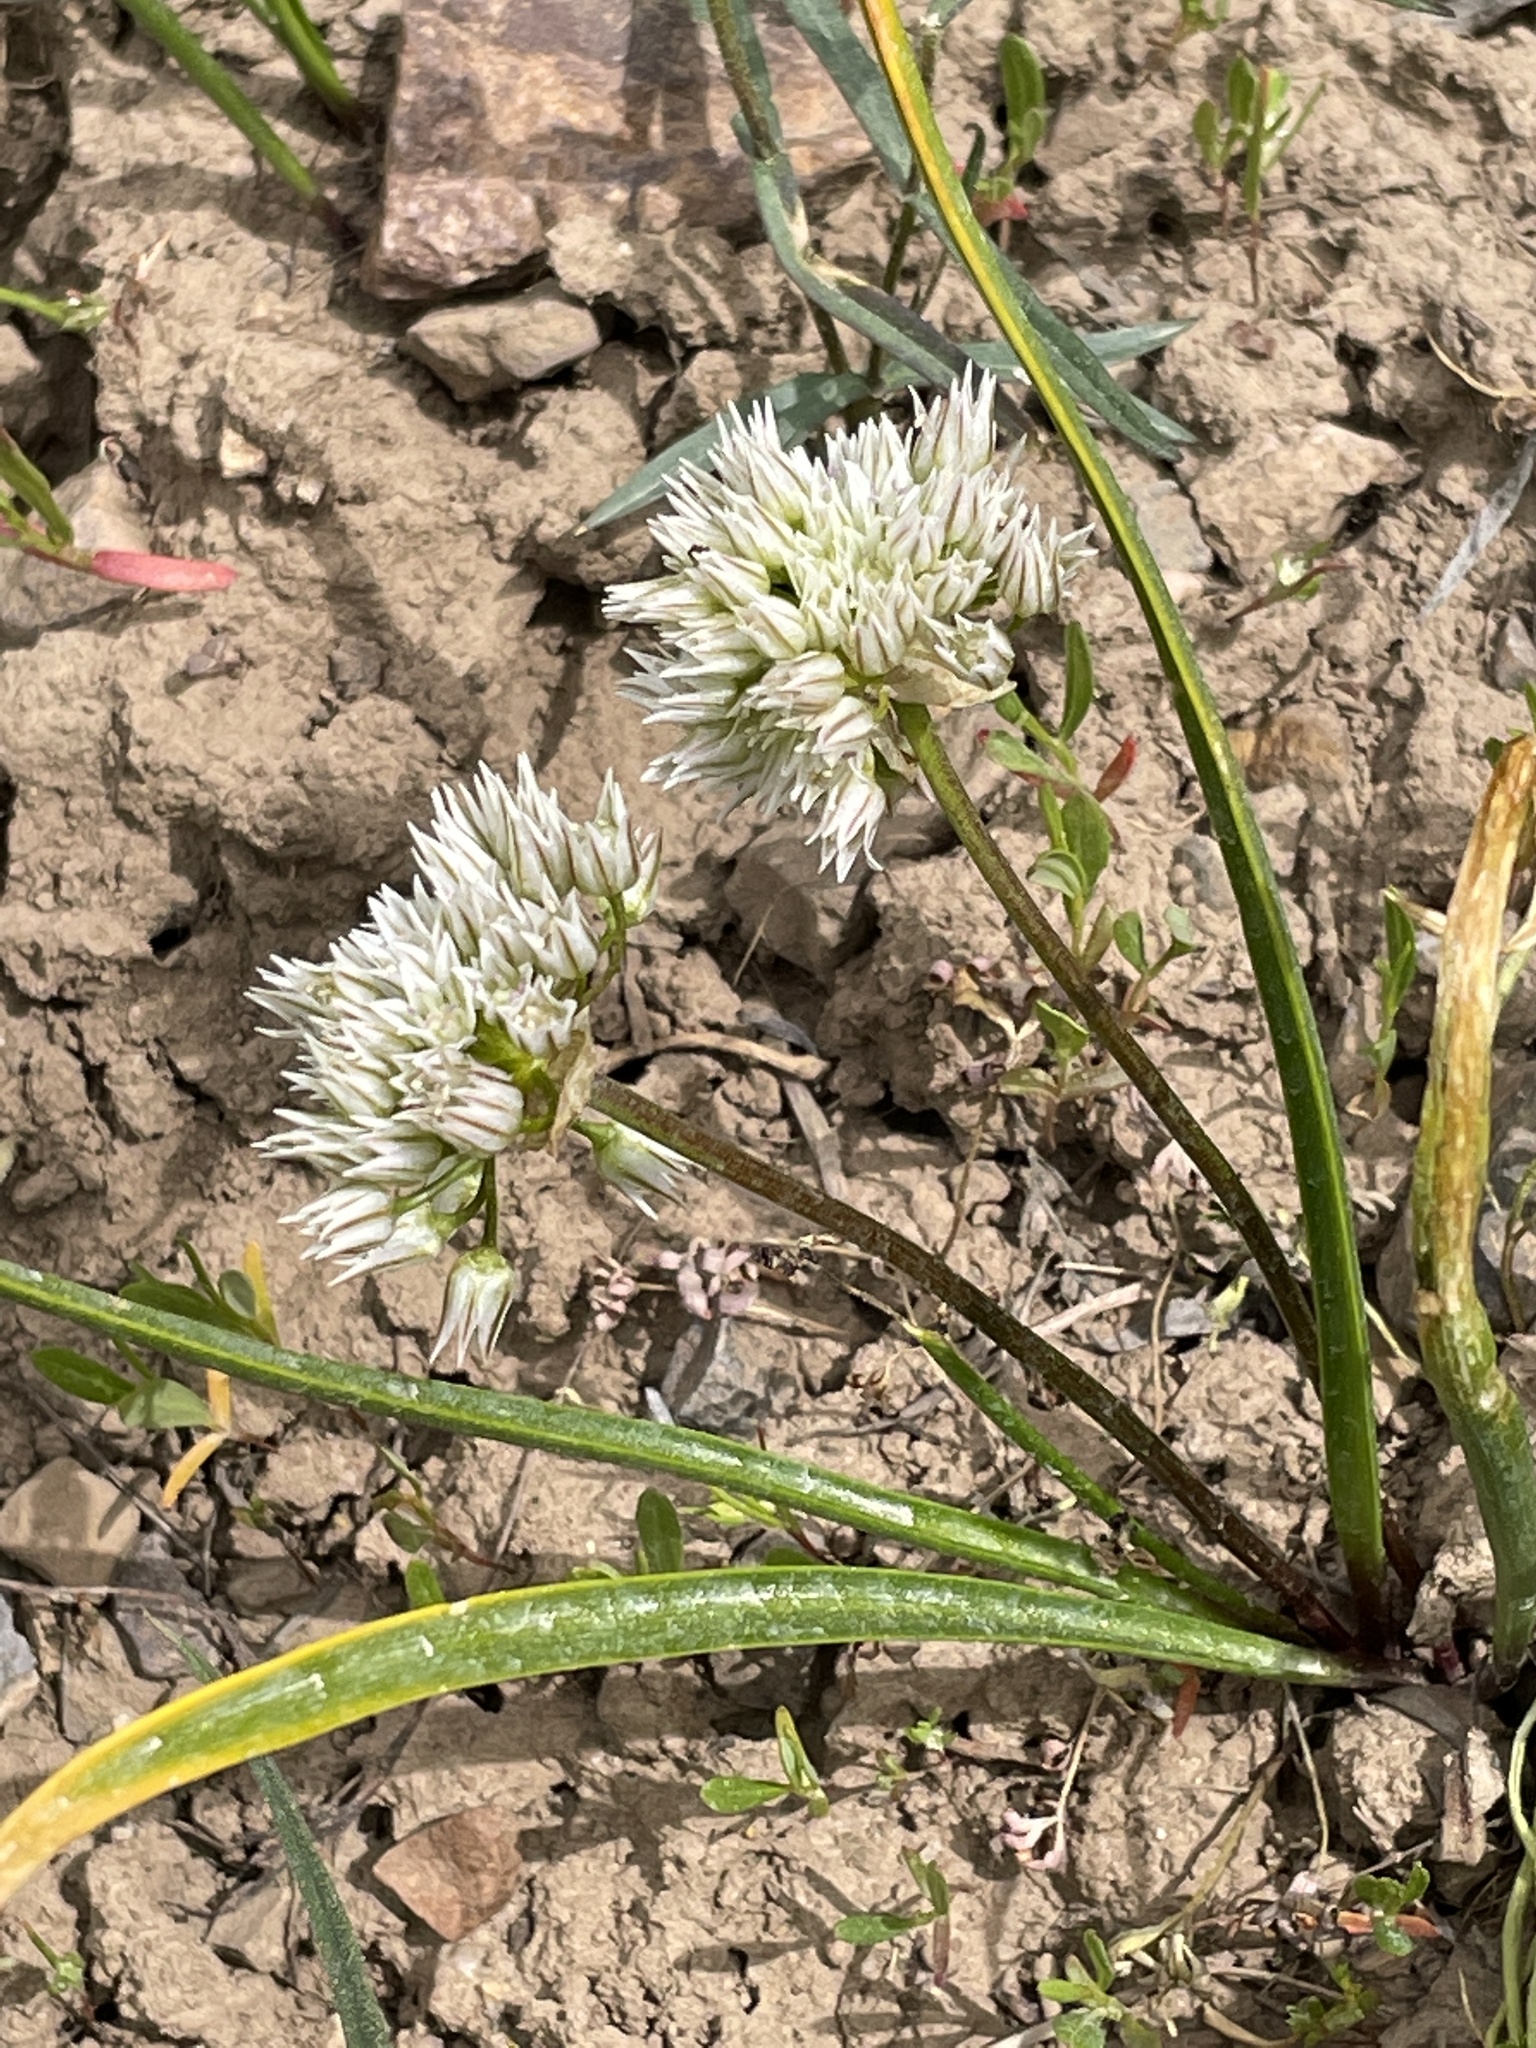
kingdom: Plantae
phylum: Tracheophyta
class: Liliopsida
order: Asparagales
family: Amaryllidaceae
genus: Allium
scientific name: Allium brandegeei
